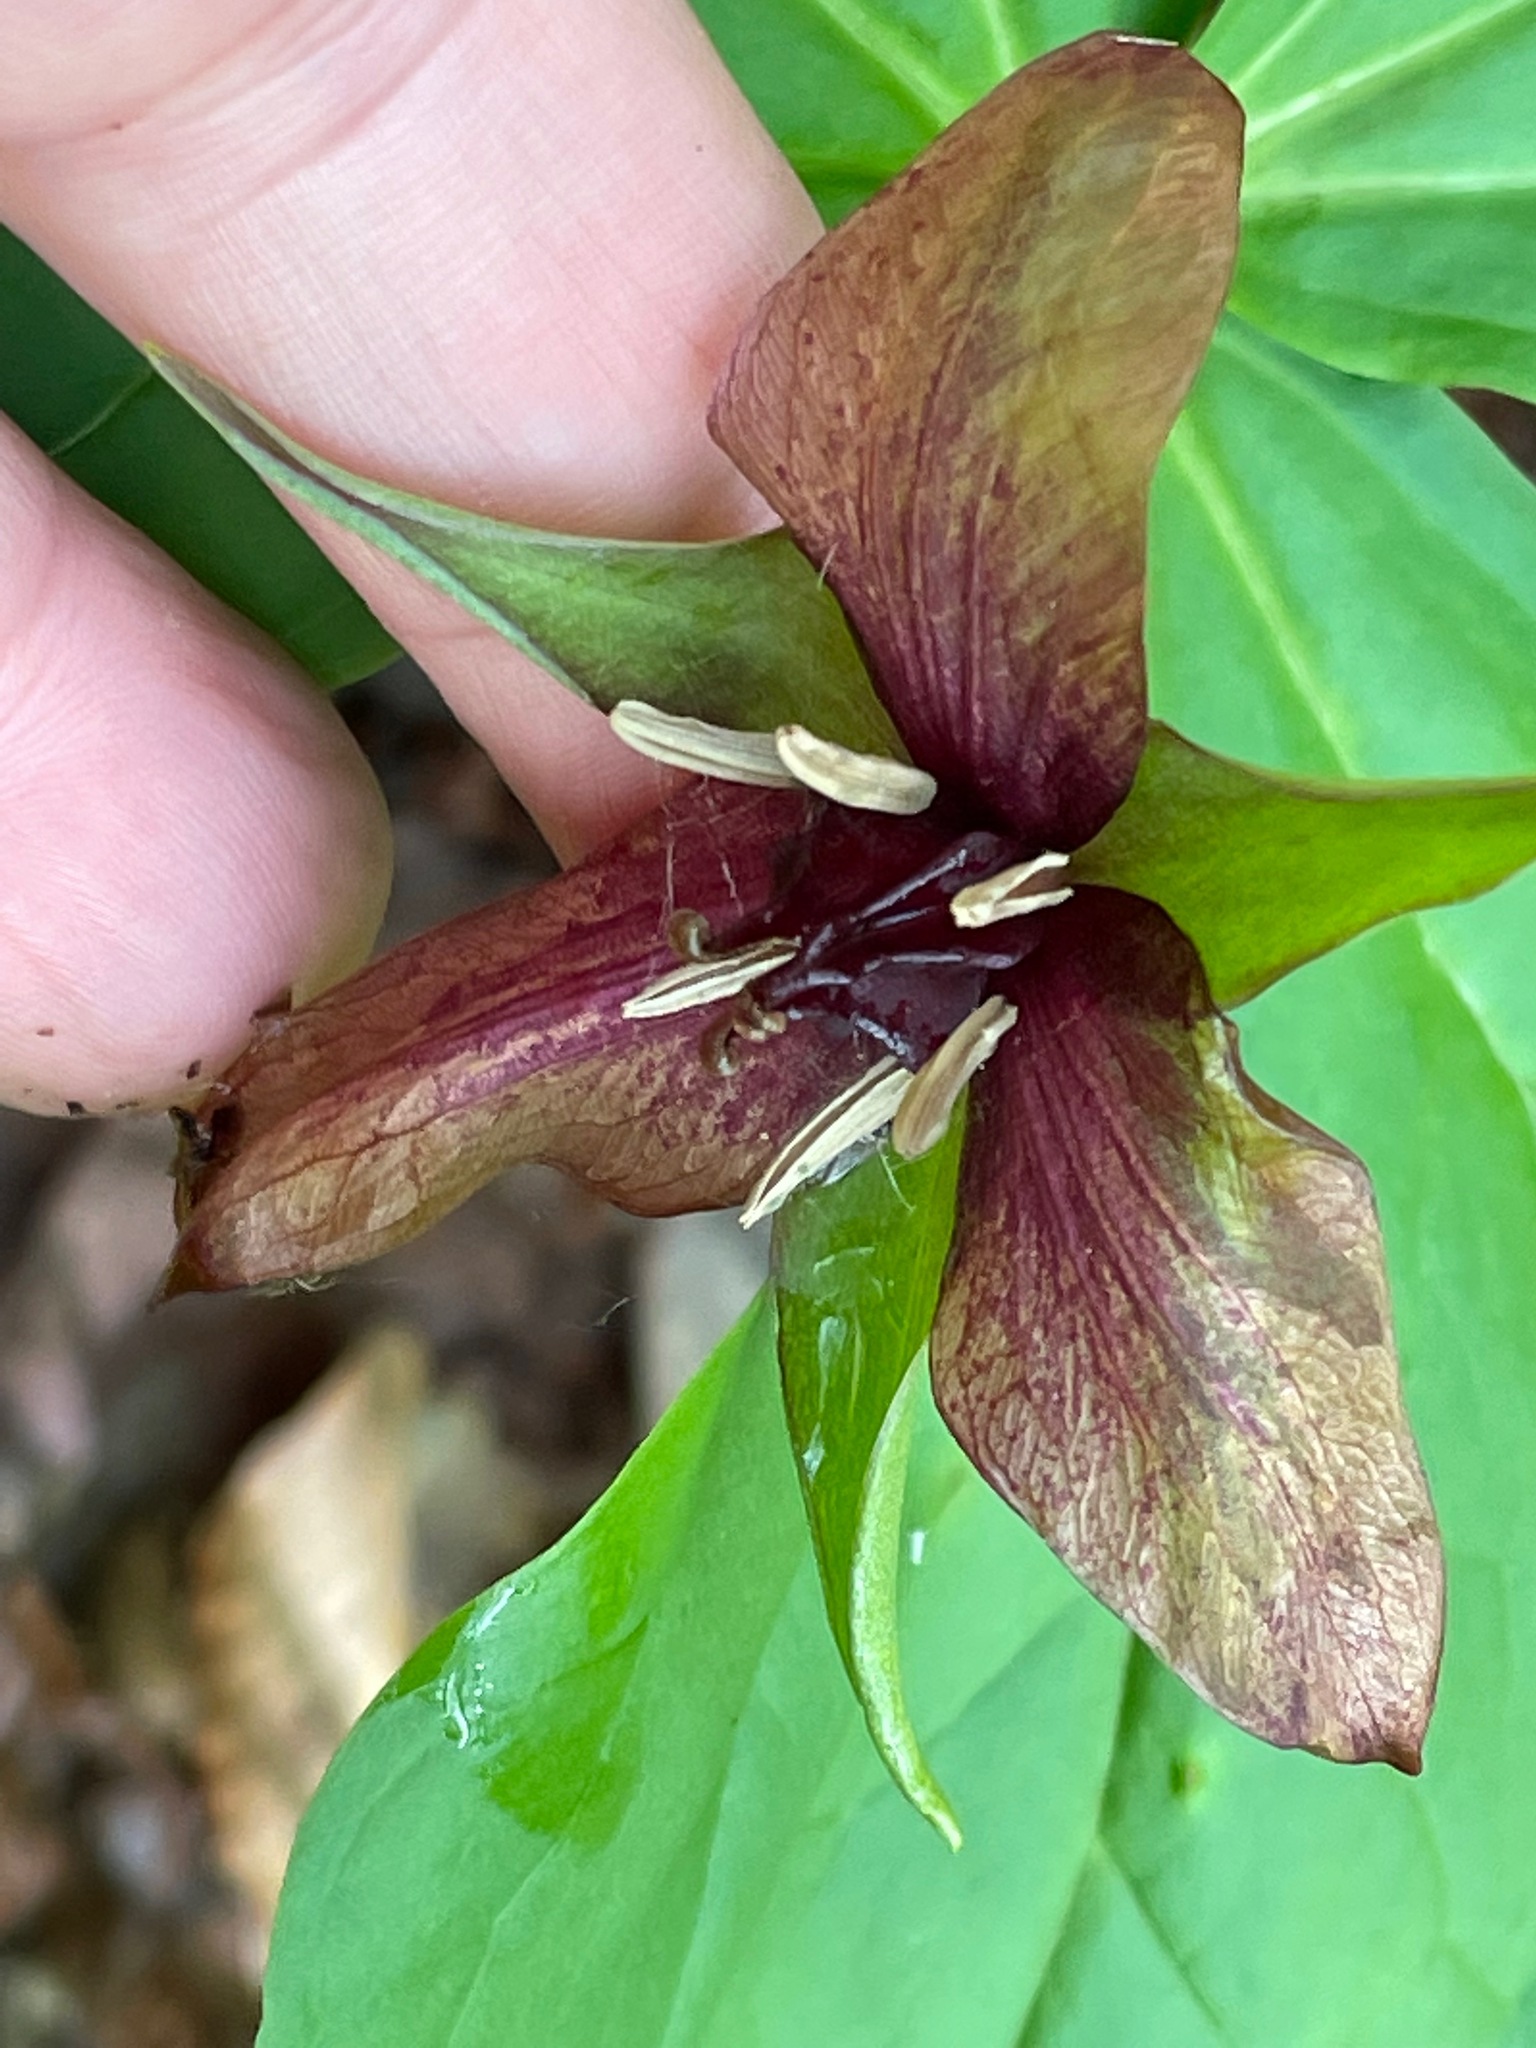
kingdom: Plantae
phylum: Tracheophyta
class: Liliopsida
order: Liliales
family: Melanthiaceae
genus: Trillium
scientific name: Trillium erectum
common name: Purple trillium
